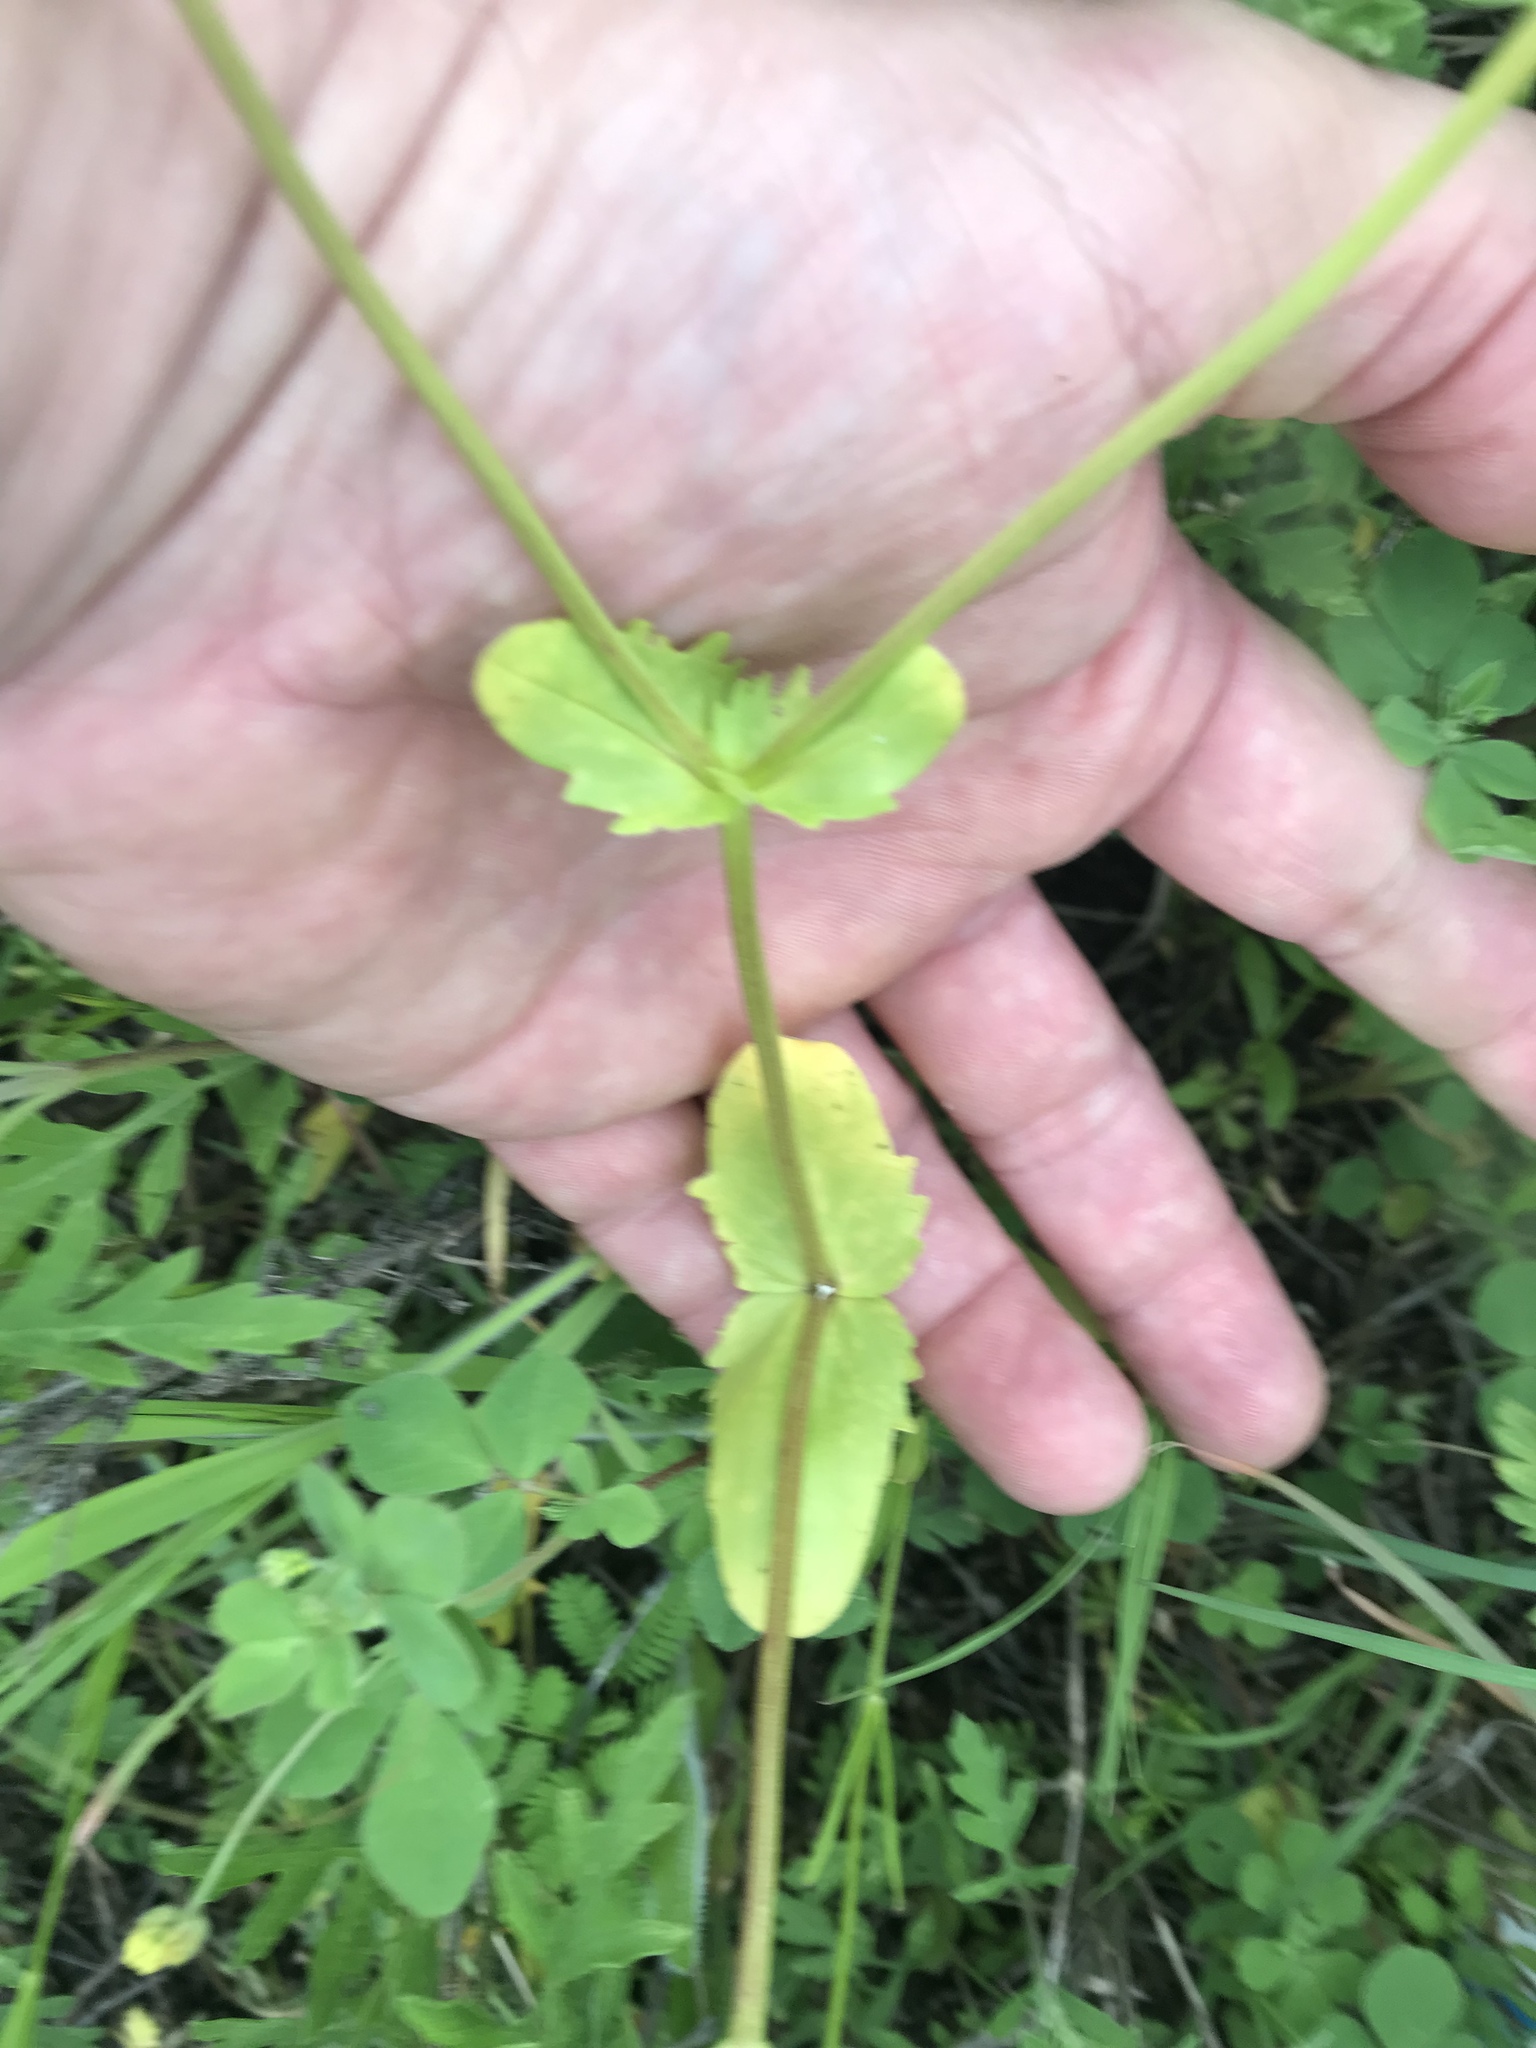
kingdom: Plantae
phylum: Tracheophyta
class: Magnoliopsida
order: Dipsacales
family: Caprifoliaceae
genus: Valerianella
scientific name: Valerianella radiata
